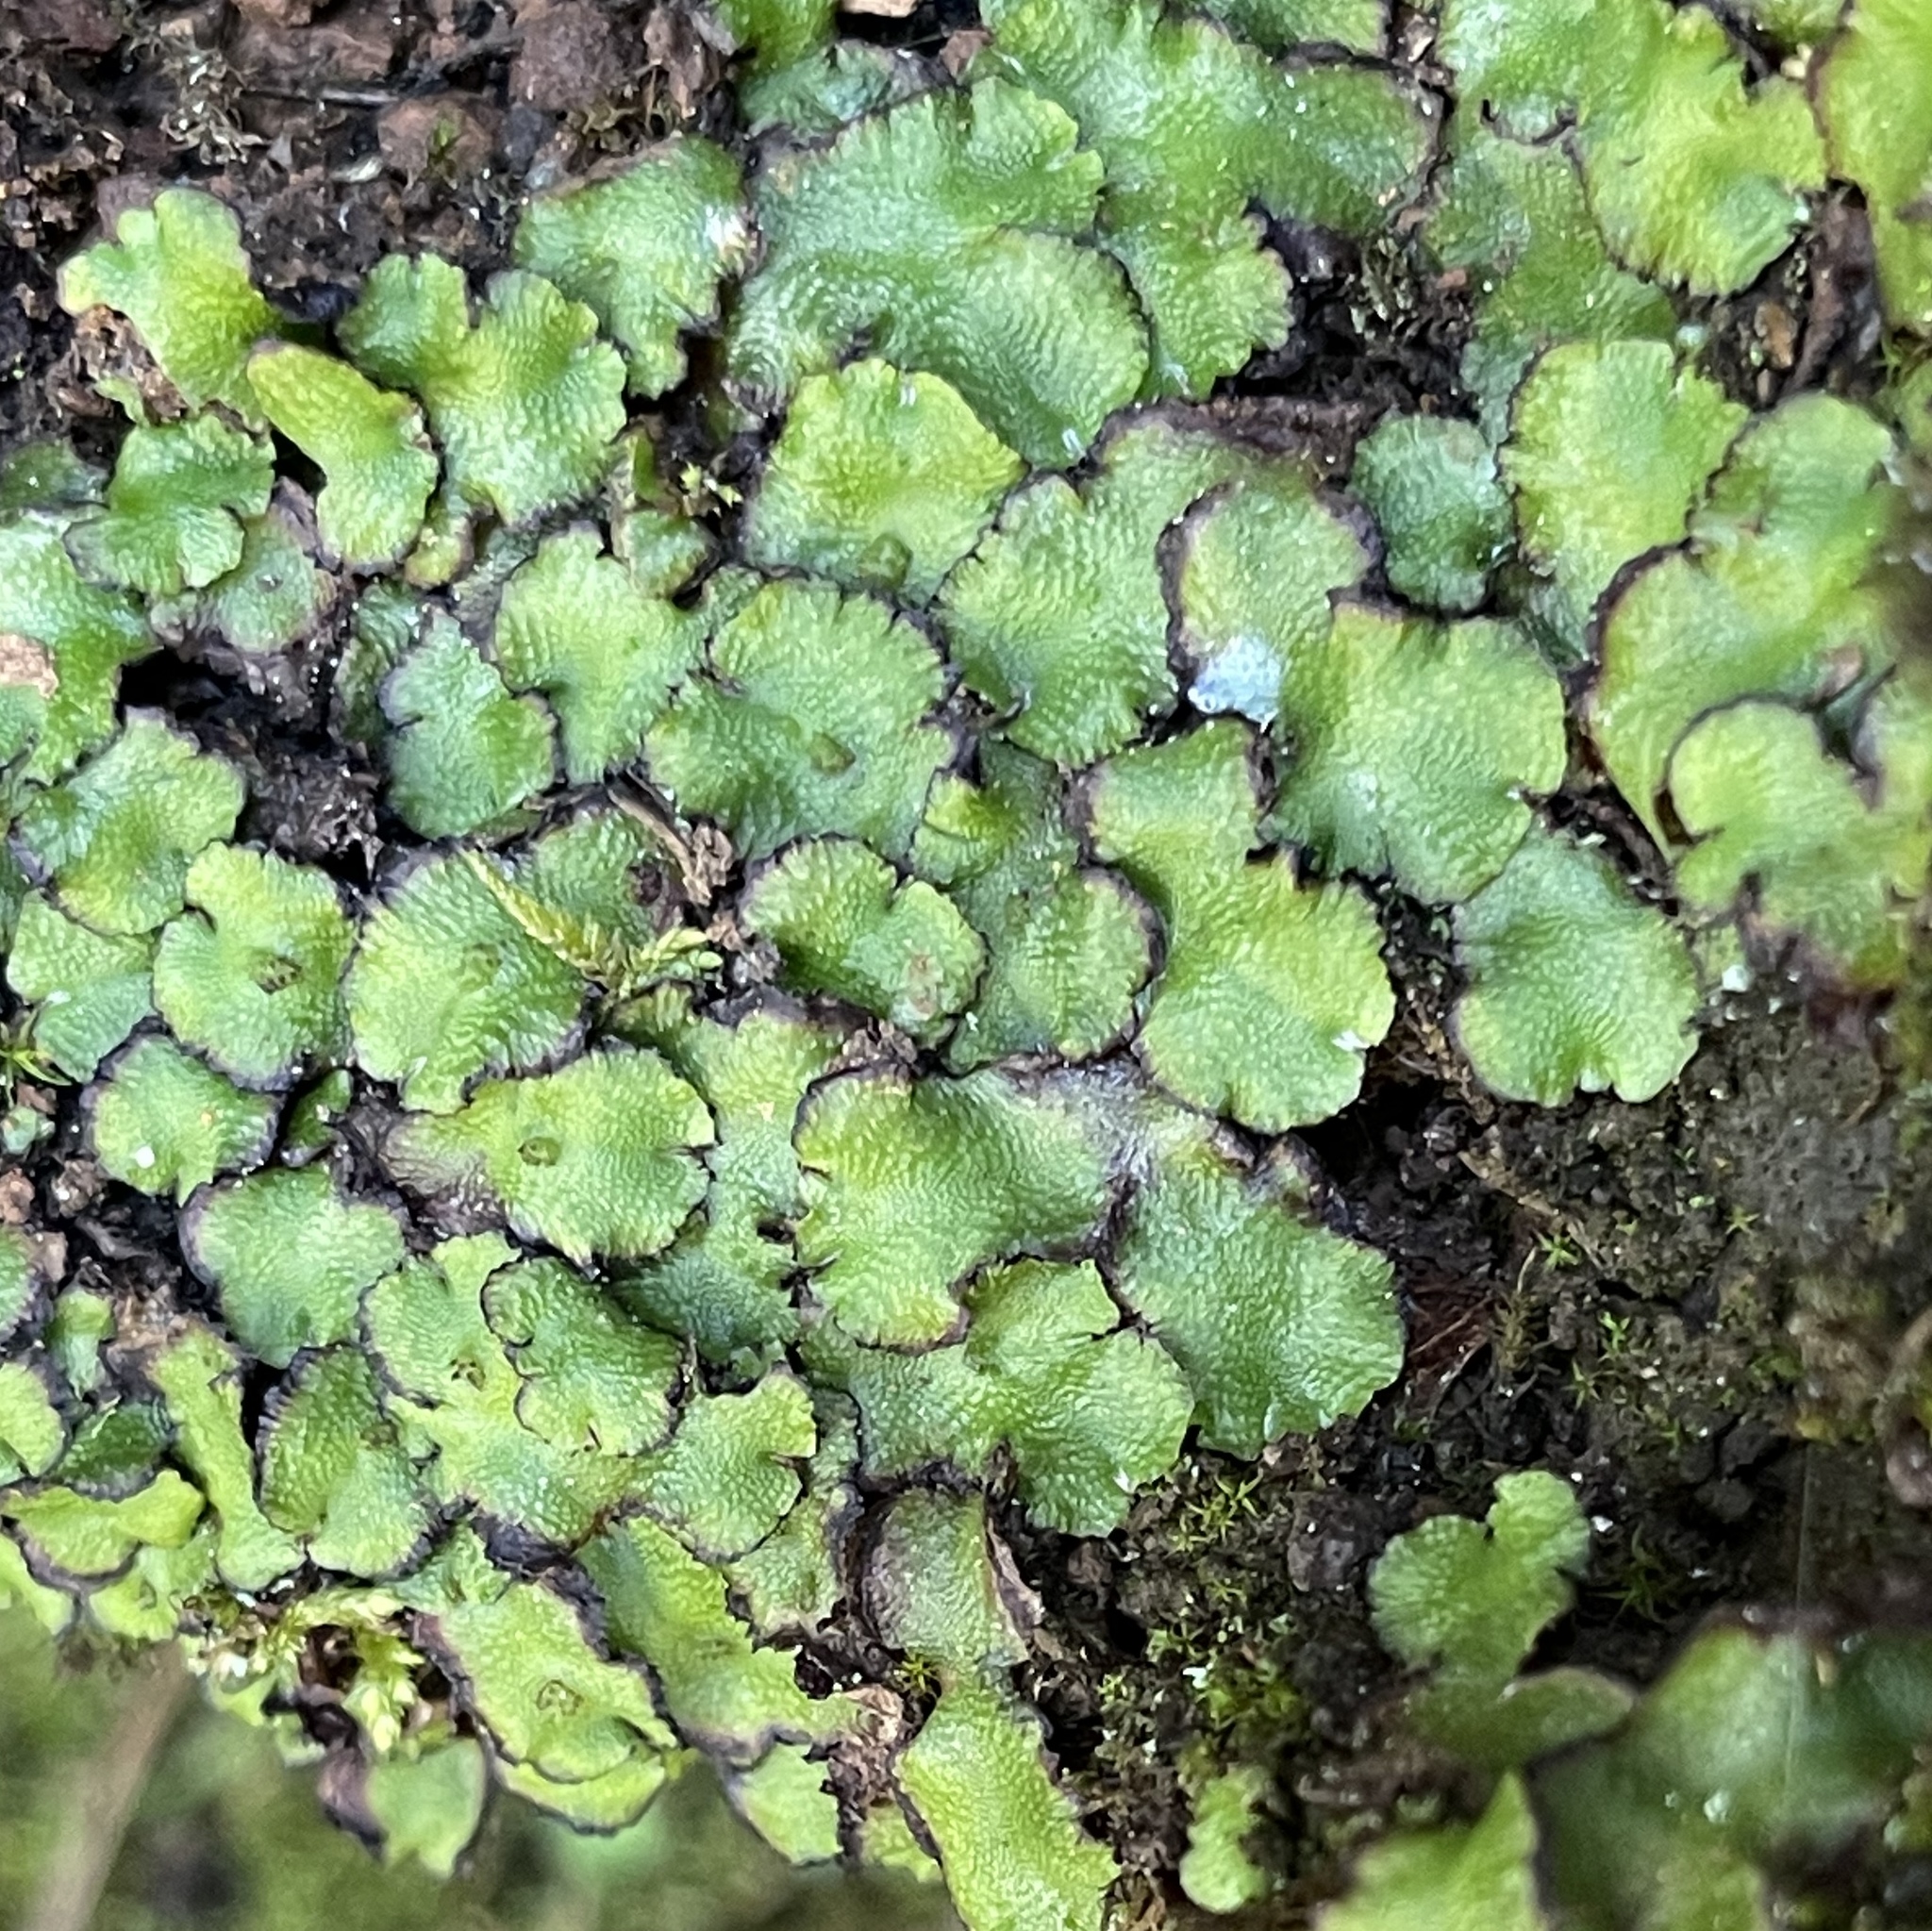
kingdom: Plantae
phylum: Marchantiophyta
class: Marchantiopsida
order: Marchantiales
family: Aytoniaceae
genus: Asterella
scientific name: Asterella californica
